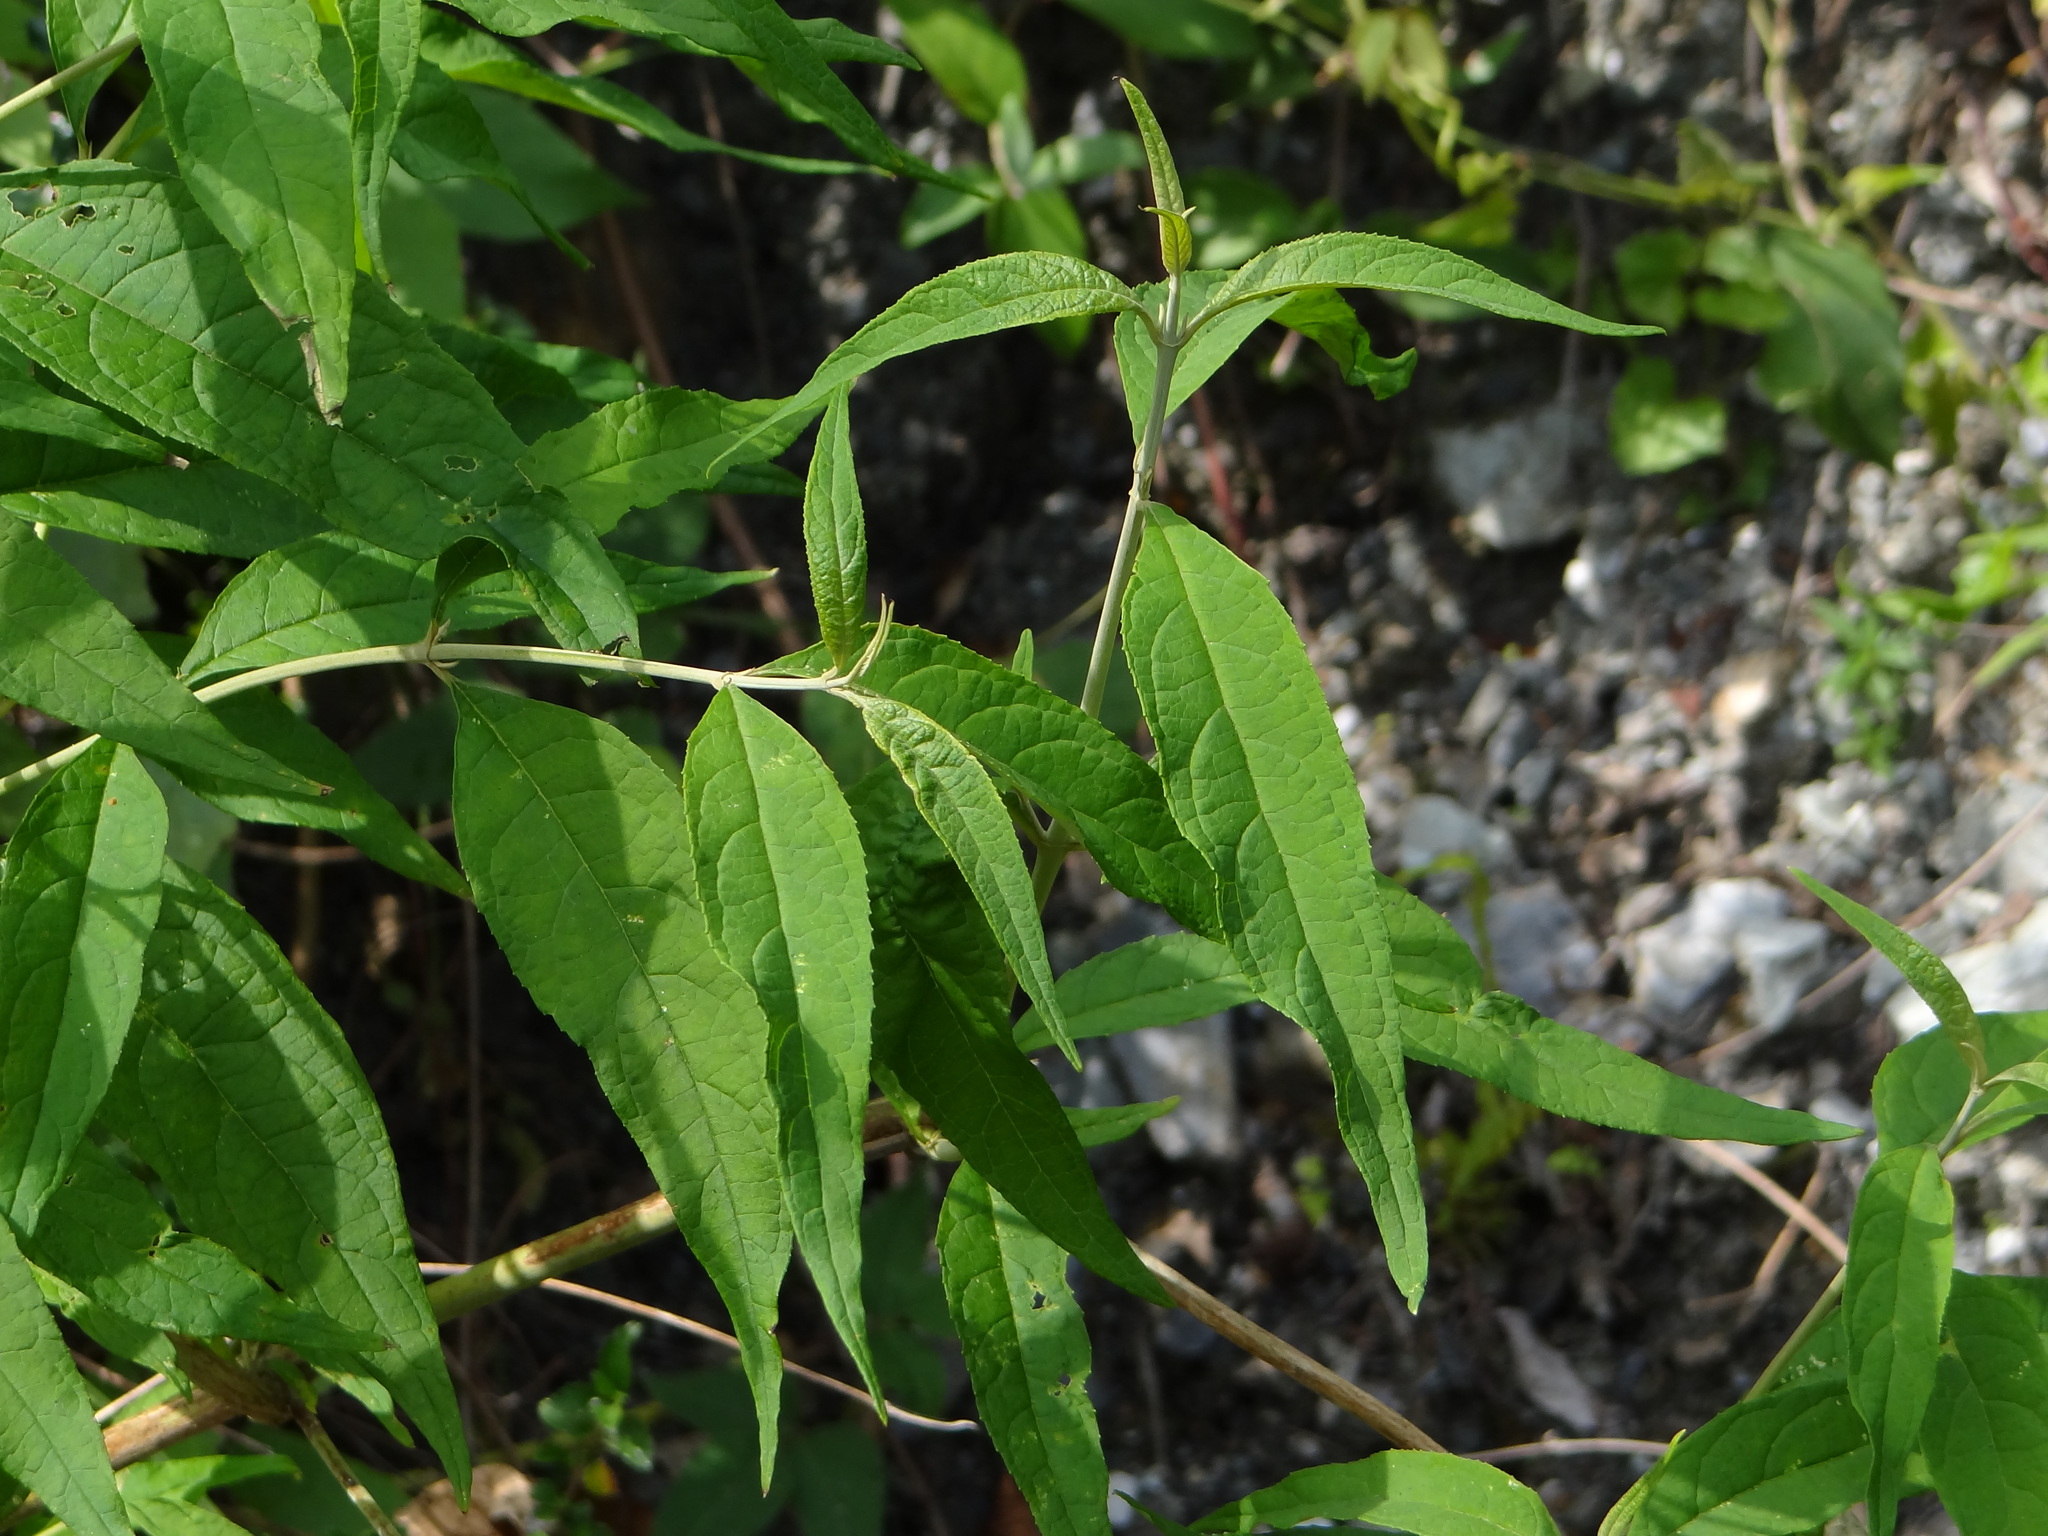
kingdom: Plantae
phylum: Tracheophyta
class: Magnoliopsida
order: Lamiales
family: Scrophulariaceae
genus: Buddleja
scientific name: Buddleja asiatica
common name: Dog tail
